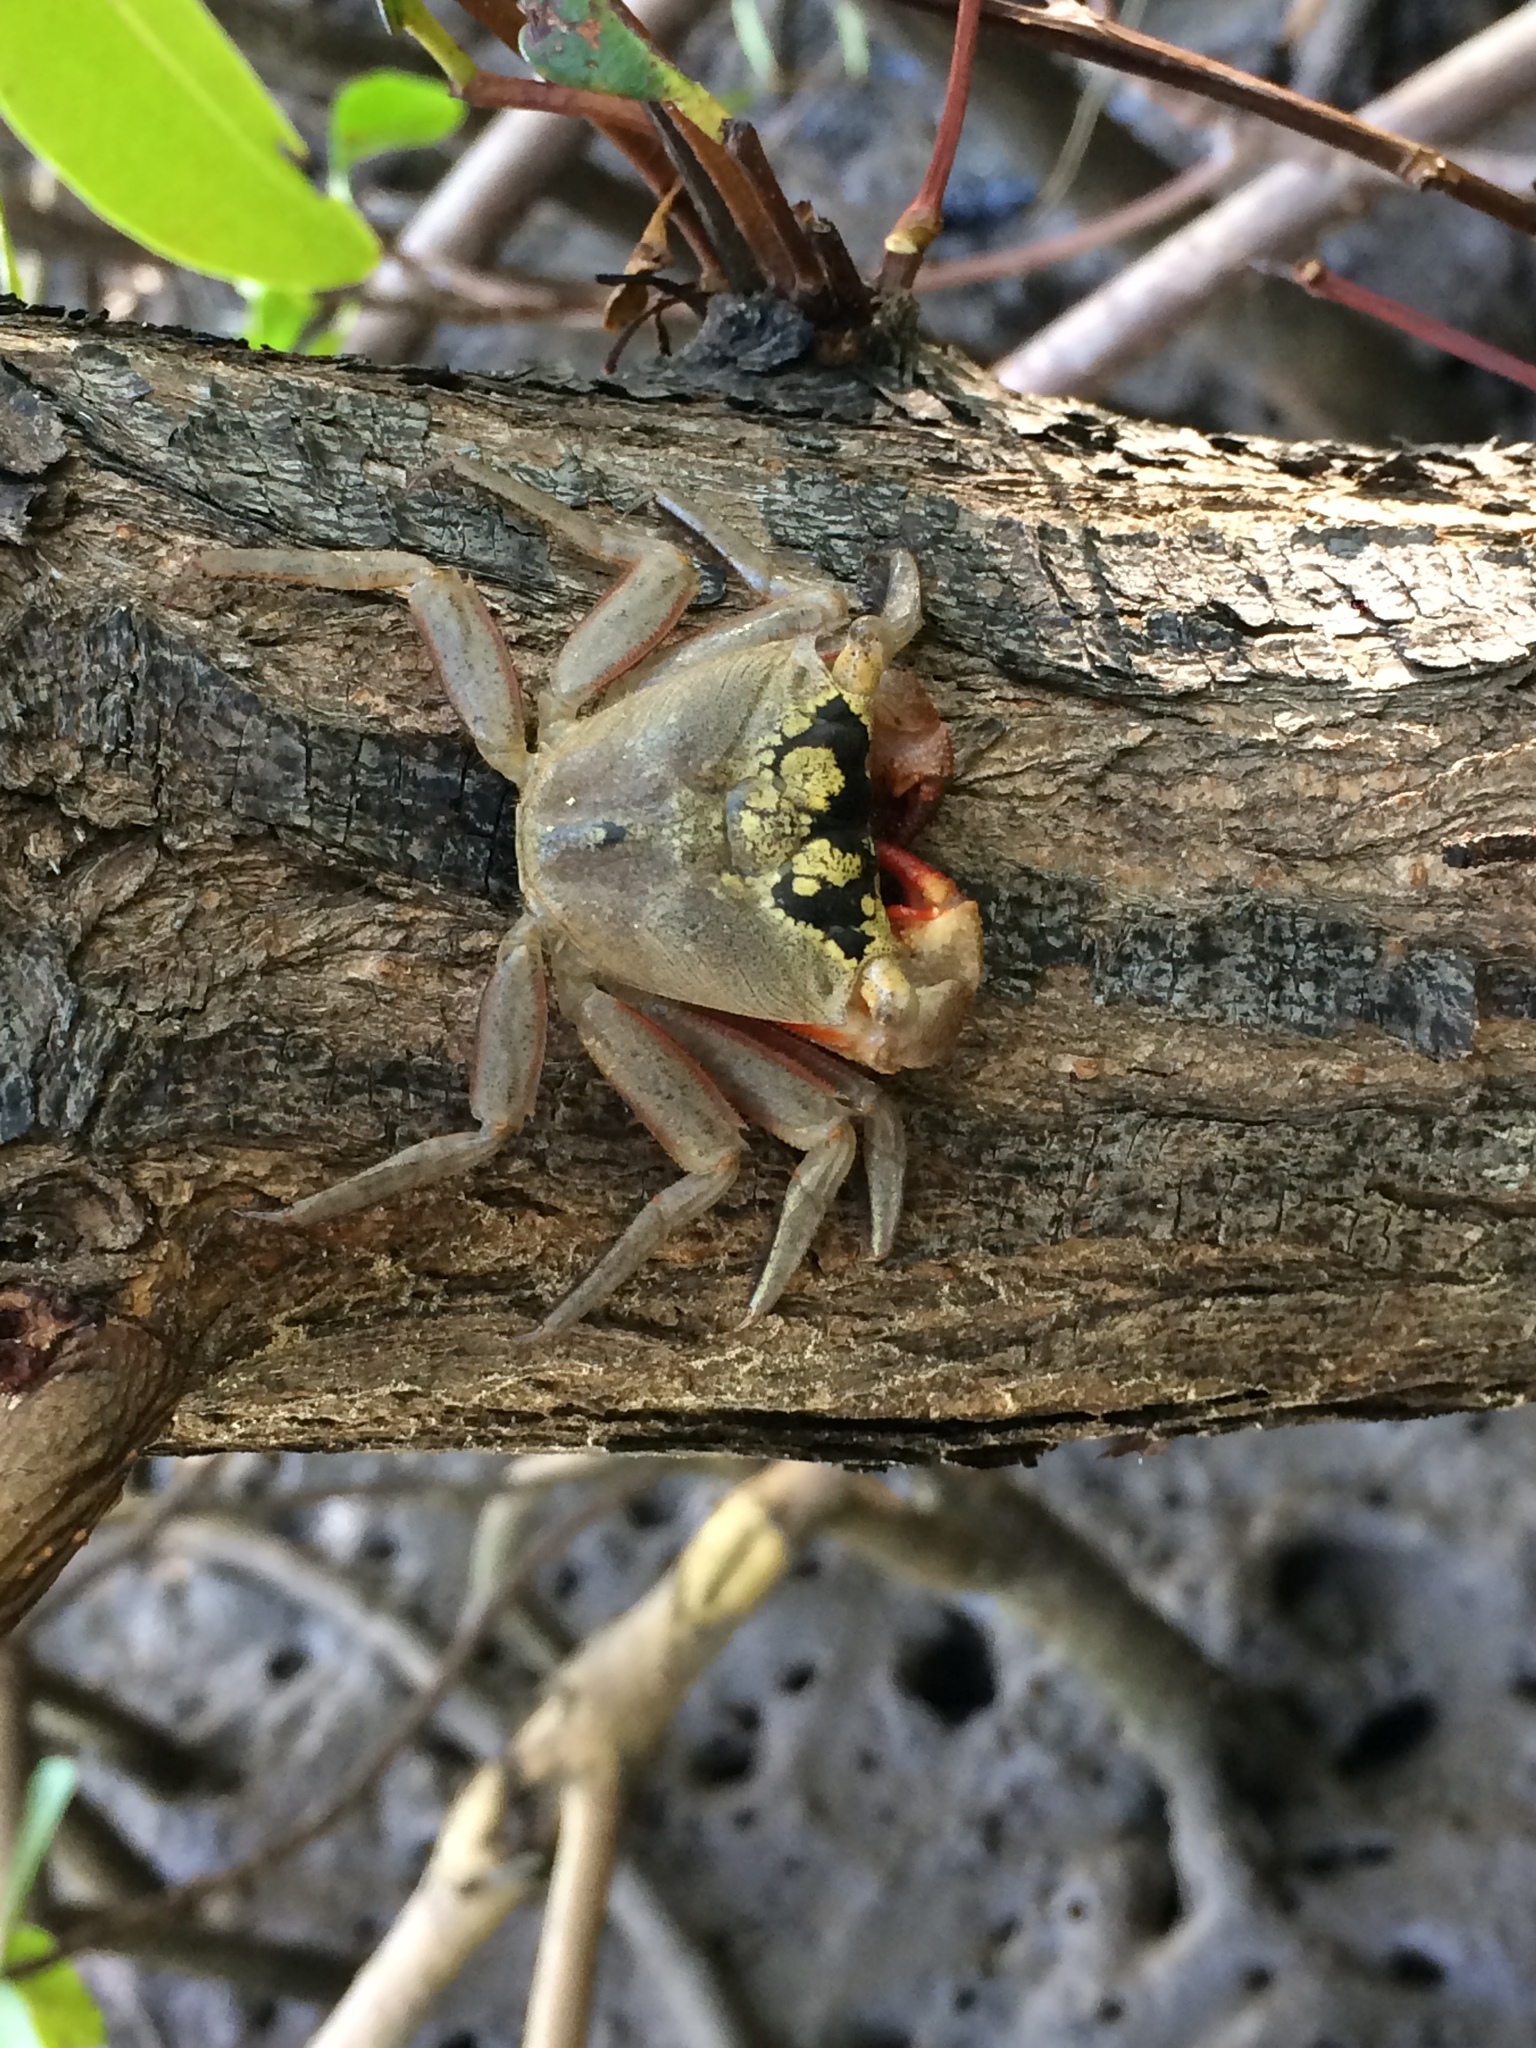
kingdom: Animalia
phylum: Arthropoda
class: Malacostraca
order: Decapoda
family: Sesarmidae
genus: Aratus
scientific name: Aratus pisonii
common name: Mangrove crab
